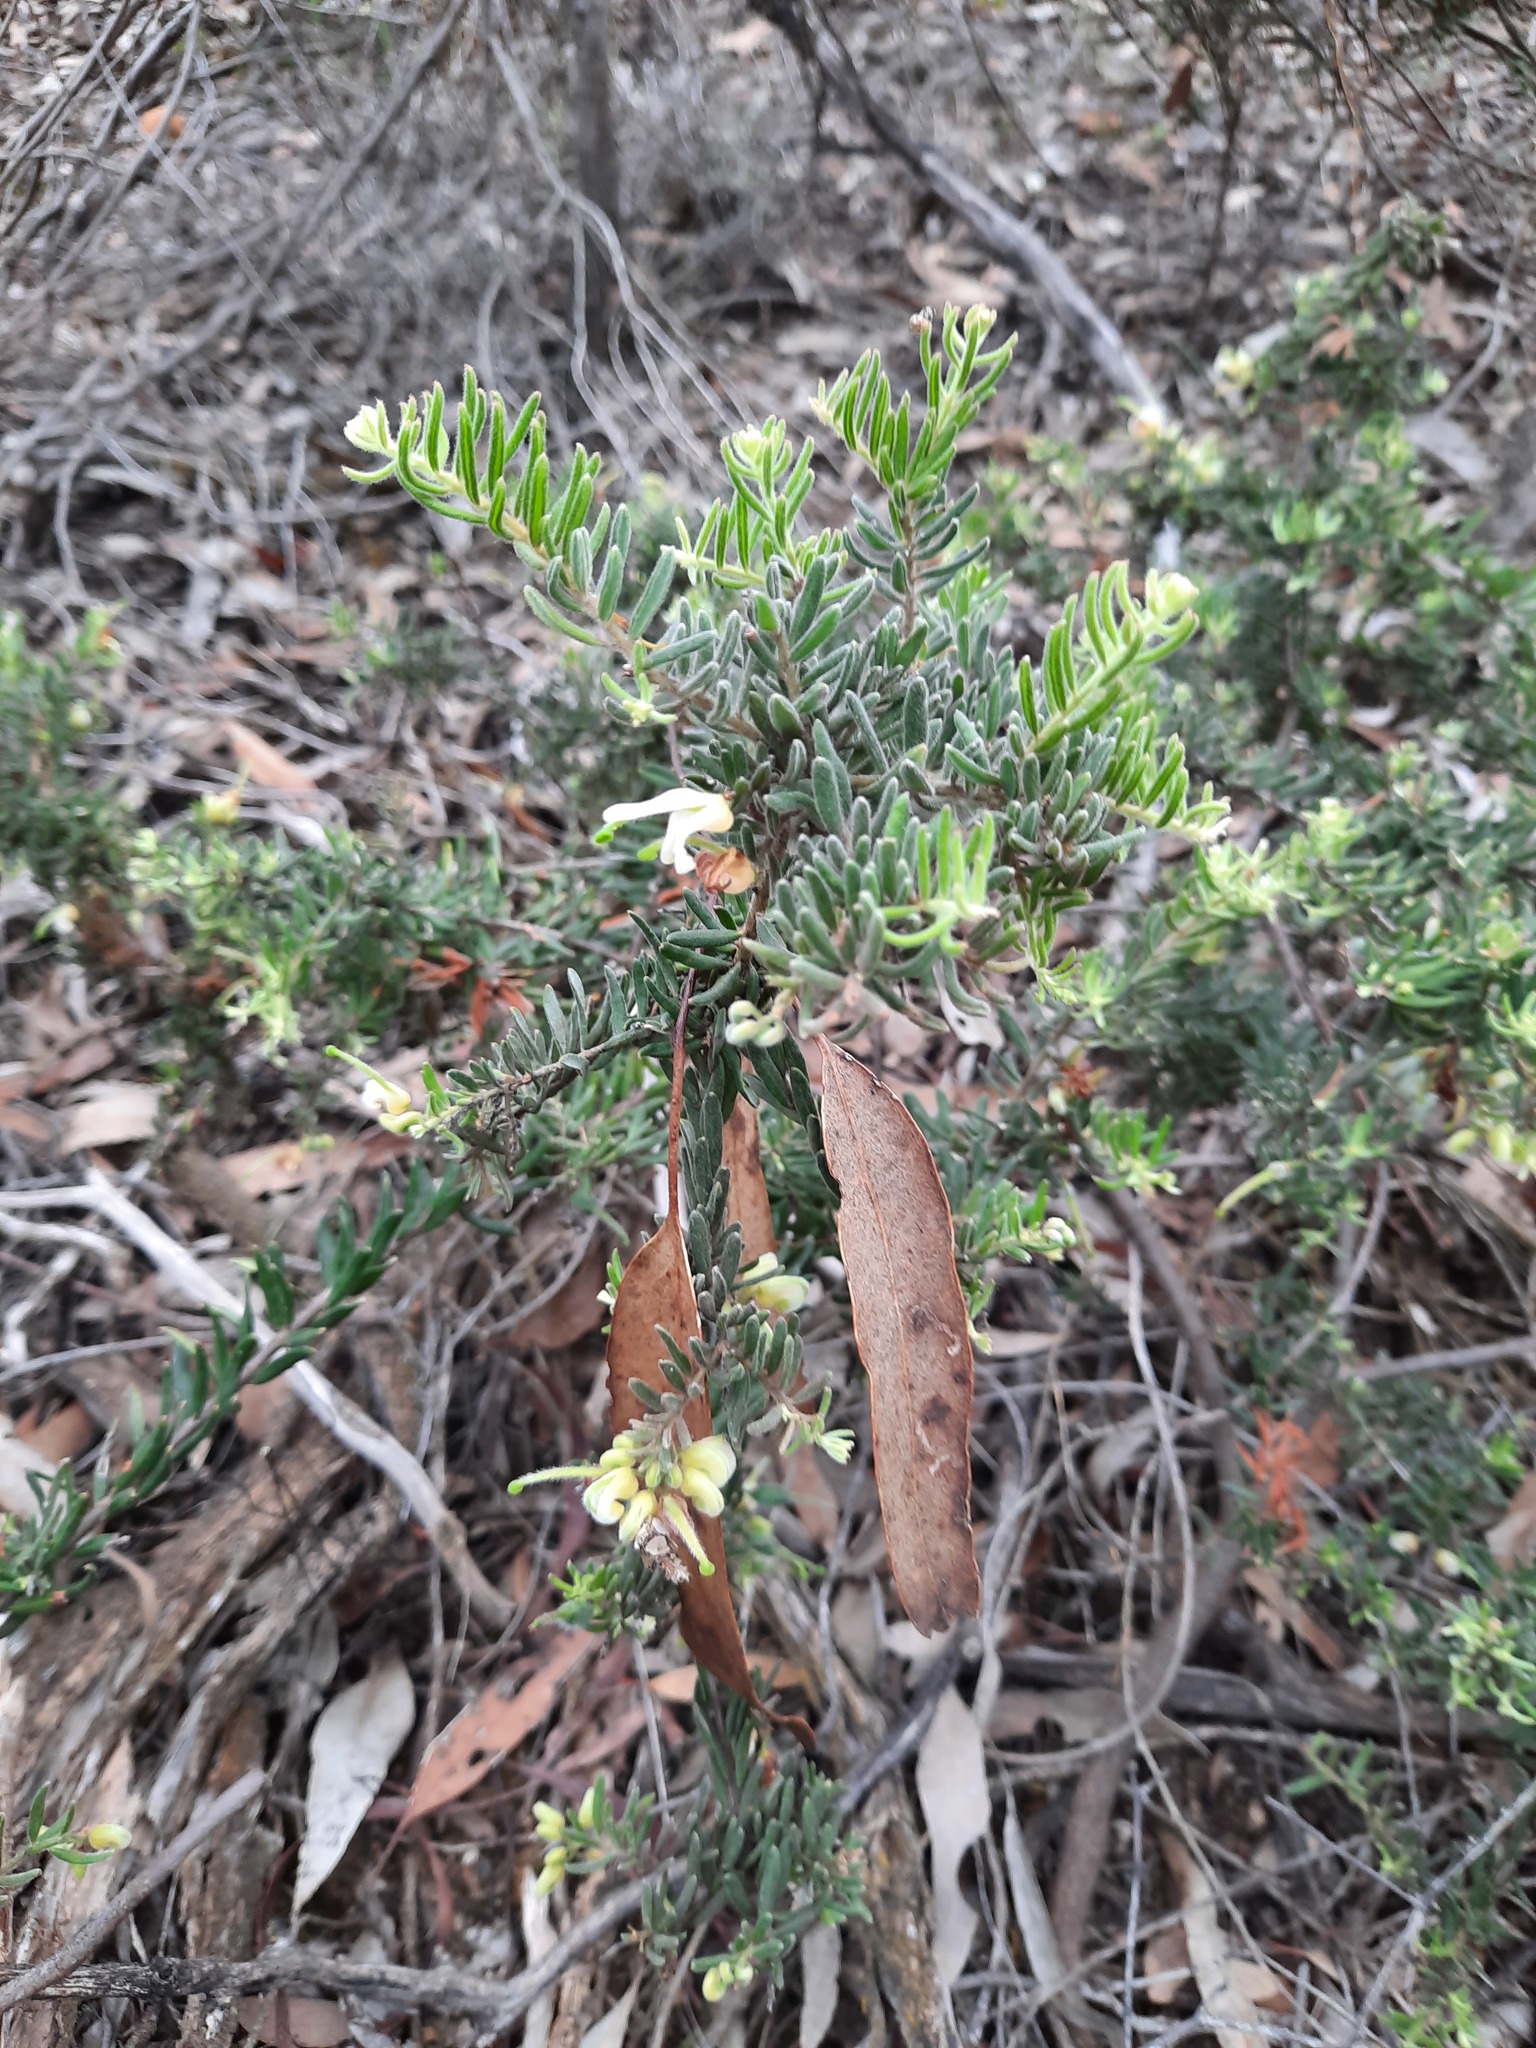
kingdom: Plantae
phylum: Tracheophyta
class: Magnoliopsida
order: Proteales
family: Proteaceae
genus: Grevillea
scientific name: Grevillea alpina
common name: Catclaws grevillea
